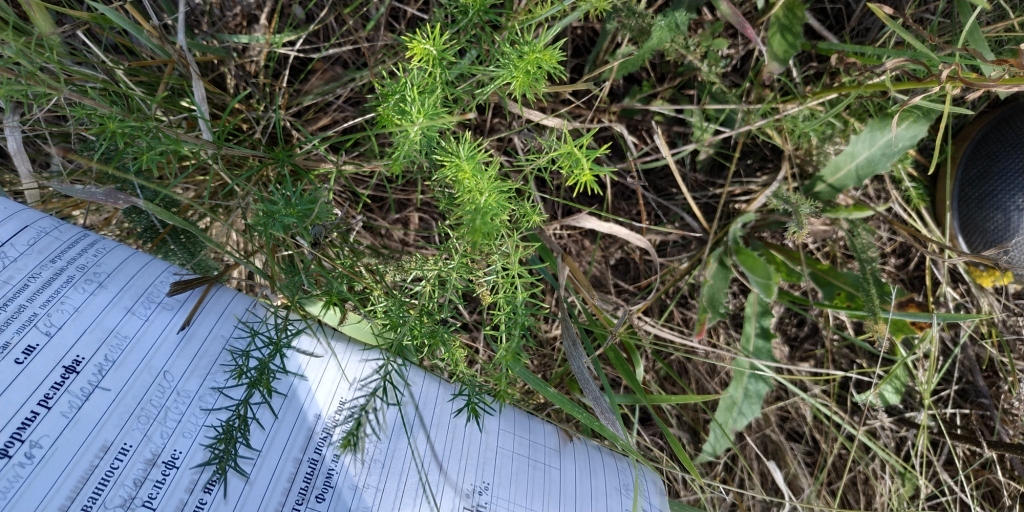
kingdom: Plantae
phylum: Tracheophyta
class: Magnoliopsida
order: Gentianales
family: Rubiaceae
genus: Galium
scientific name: Galium verum
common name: Lady's bedstraw
